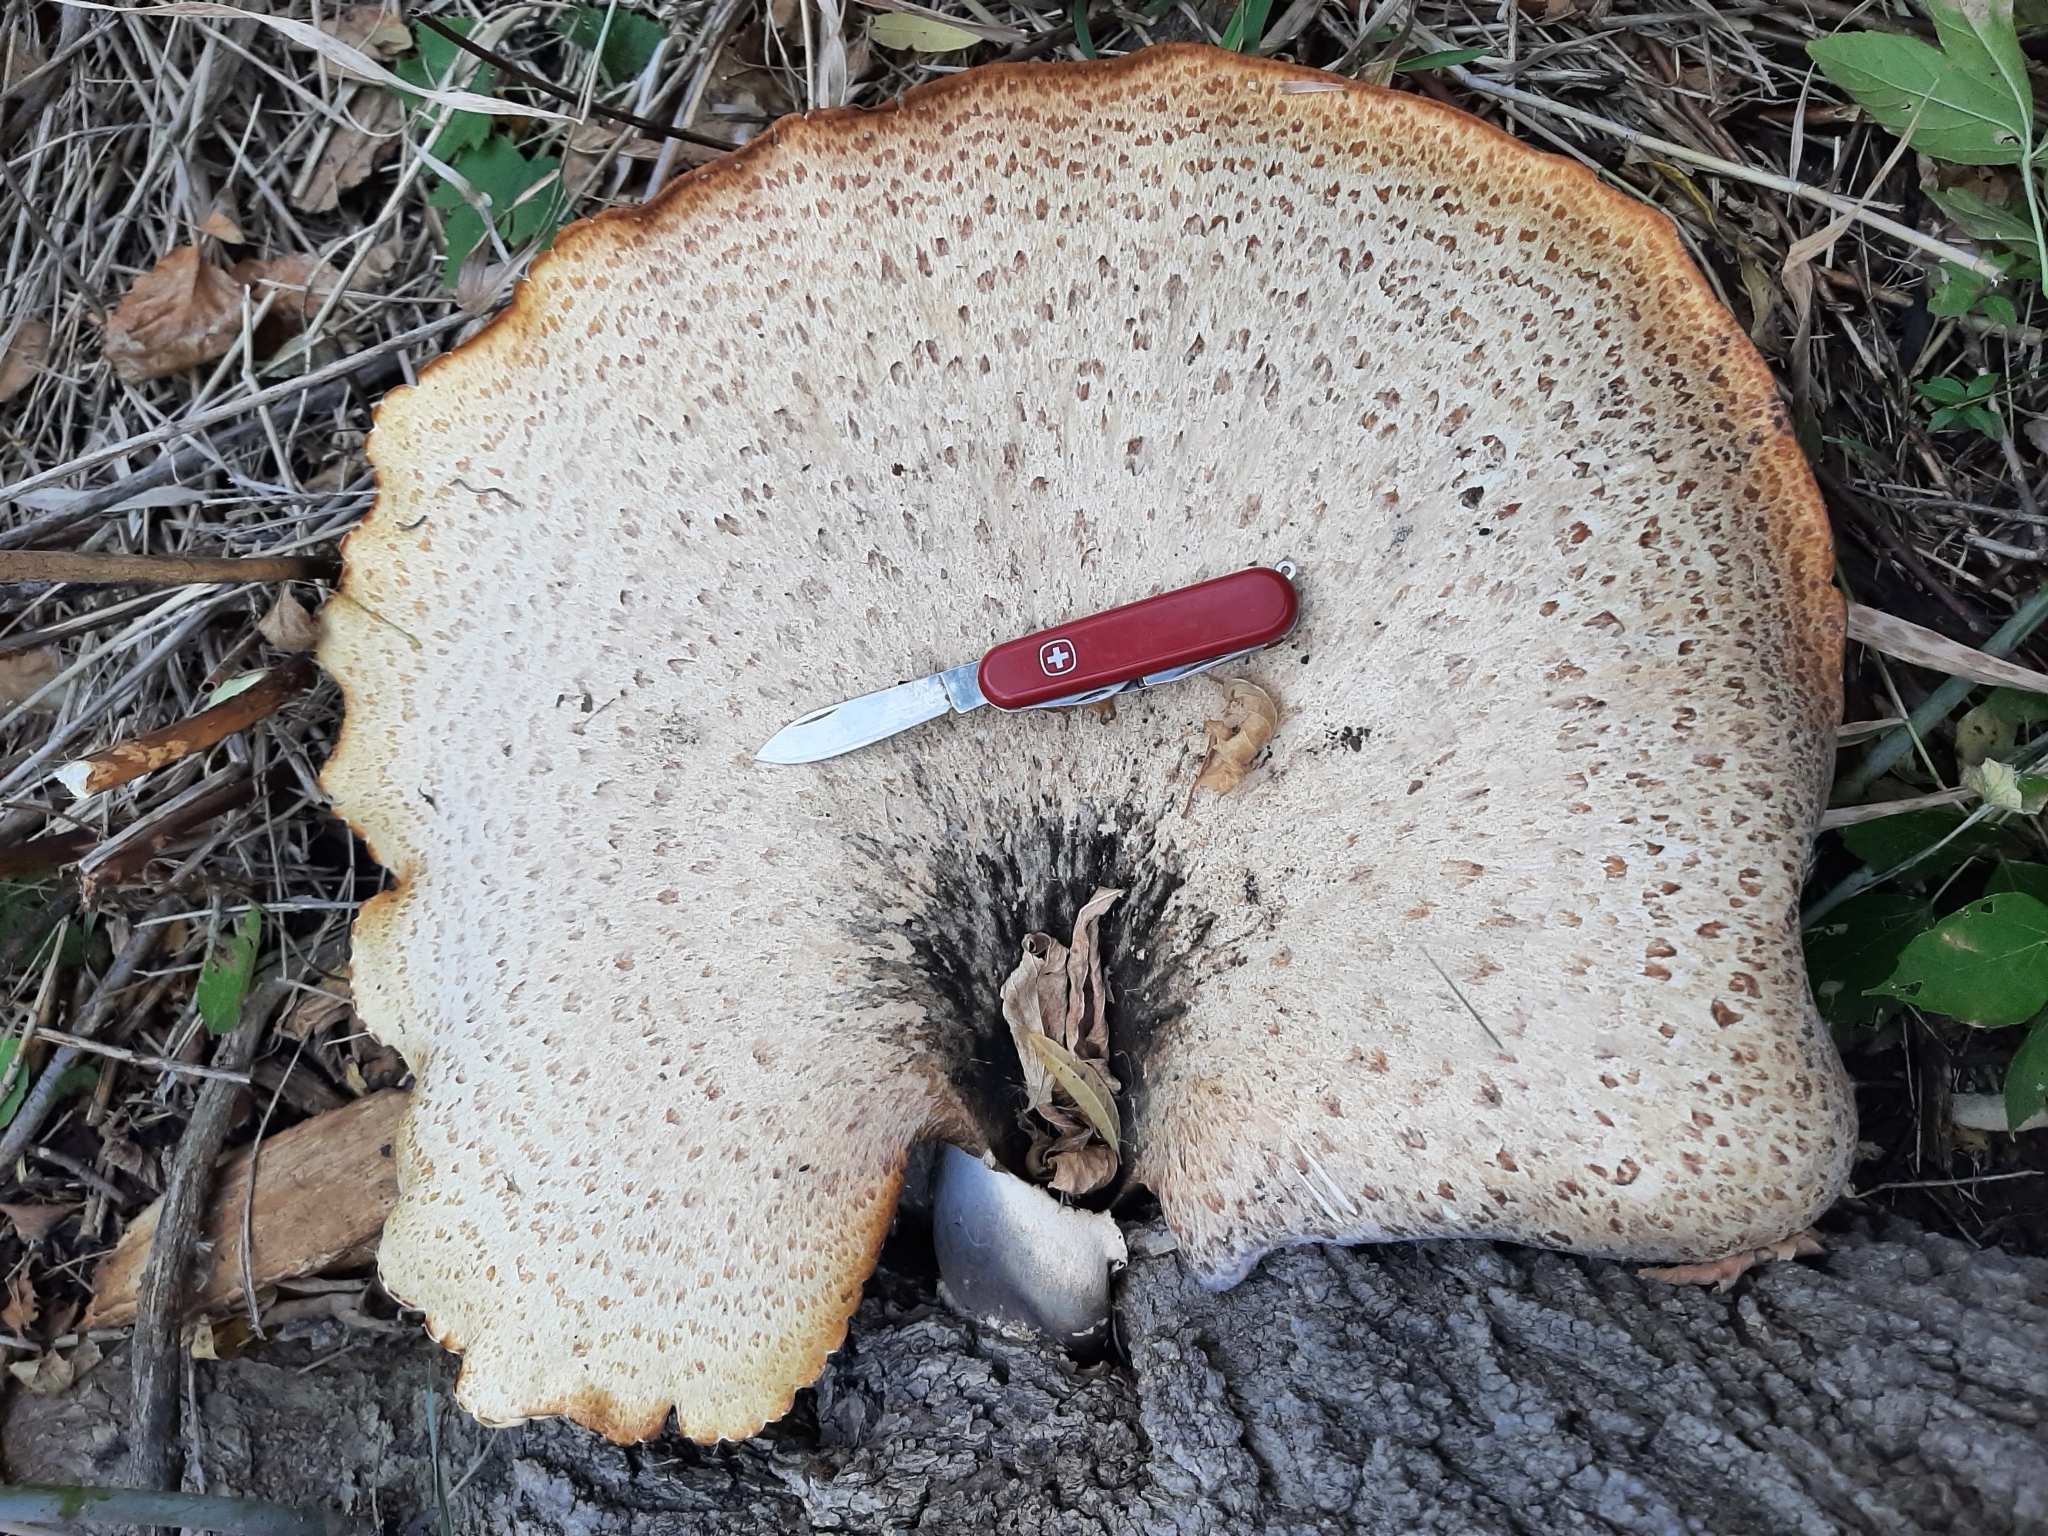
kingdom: Fungi
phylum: Basidiomycota
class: Agaricomycetes
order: Polyporales
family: Polyporaceae
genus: Cerioporus
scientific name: Cerioporus squamosus
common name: Dryad's saddle
